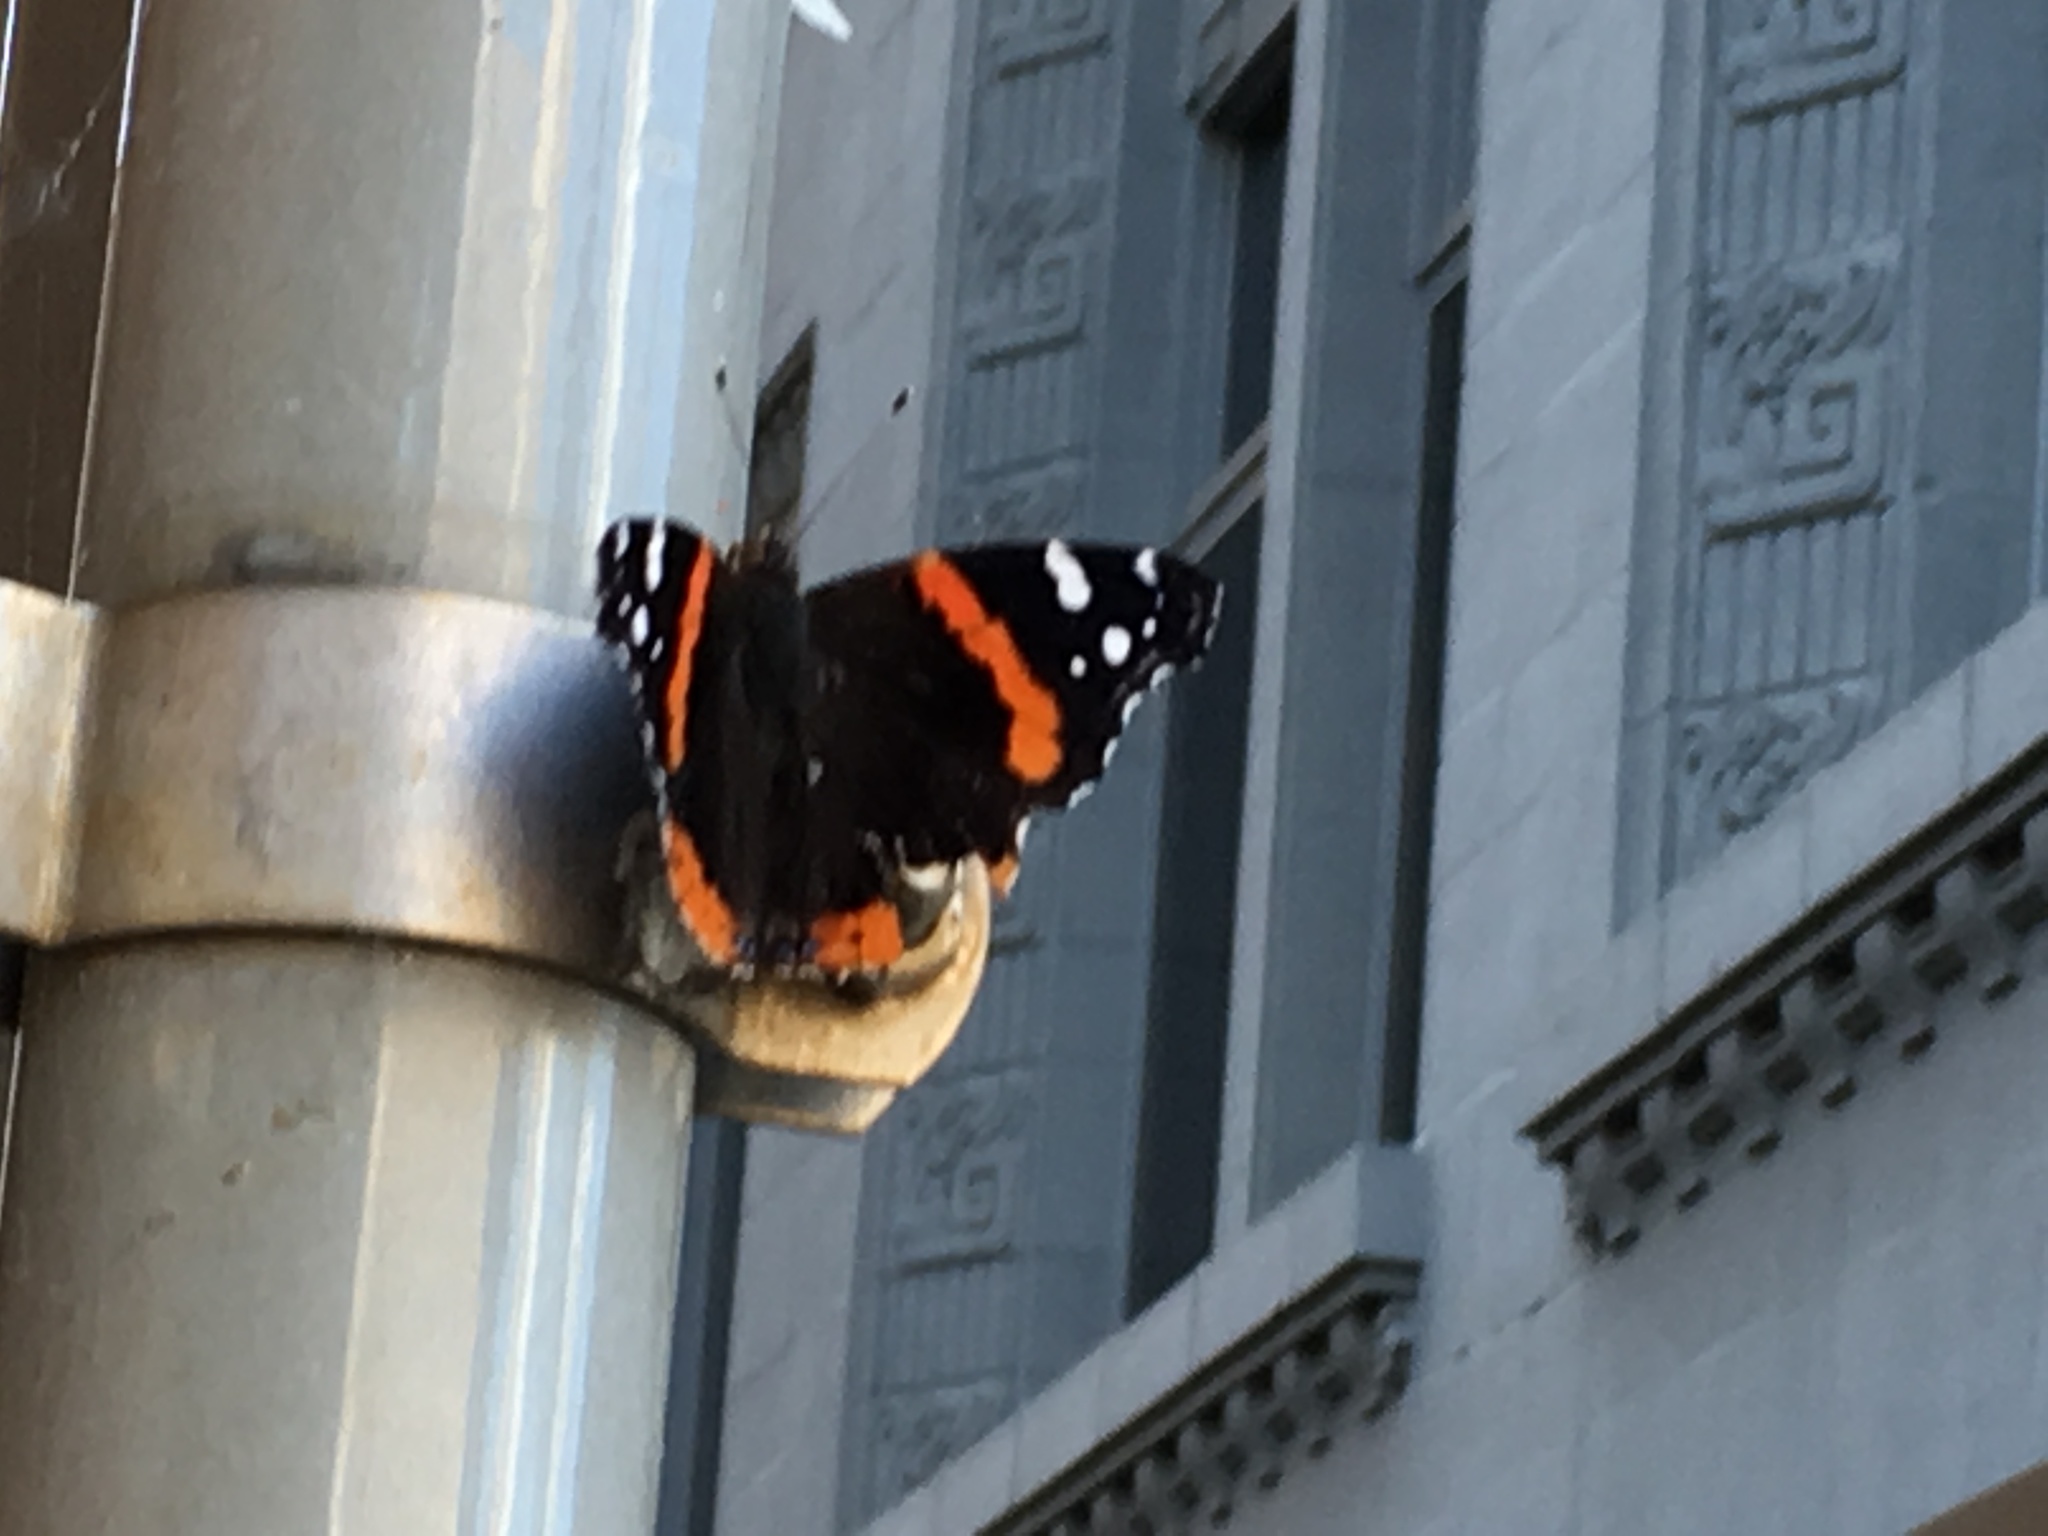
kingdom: Animalia
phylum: Arthropoda
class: Insecta
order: Lepidoptera
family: Nymphalidae
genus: Vanessa
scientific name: Vanessa atalanta
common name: Red admiral
